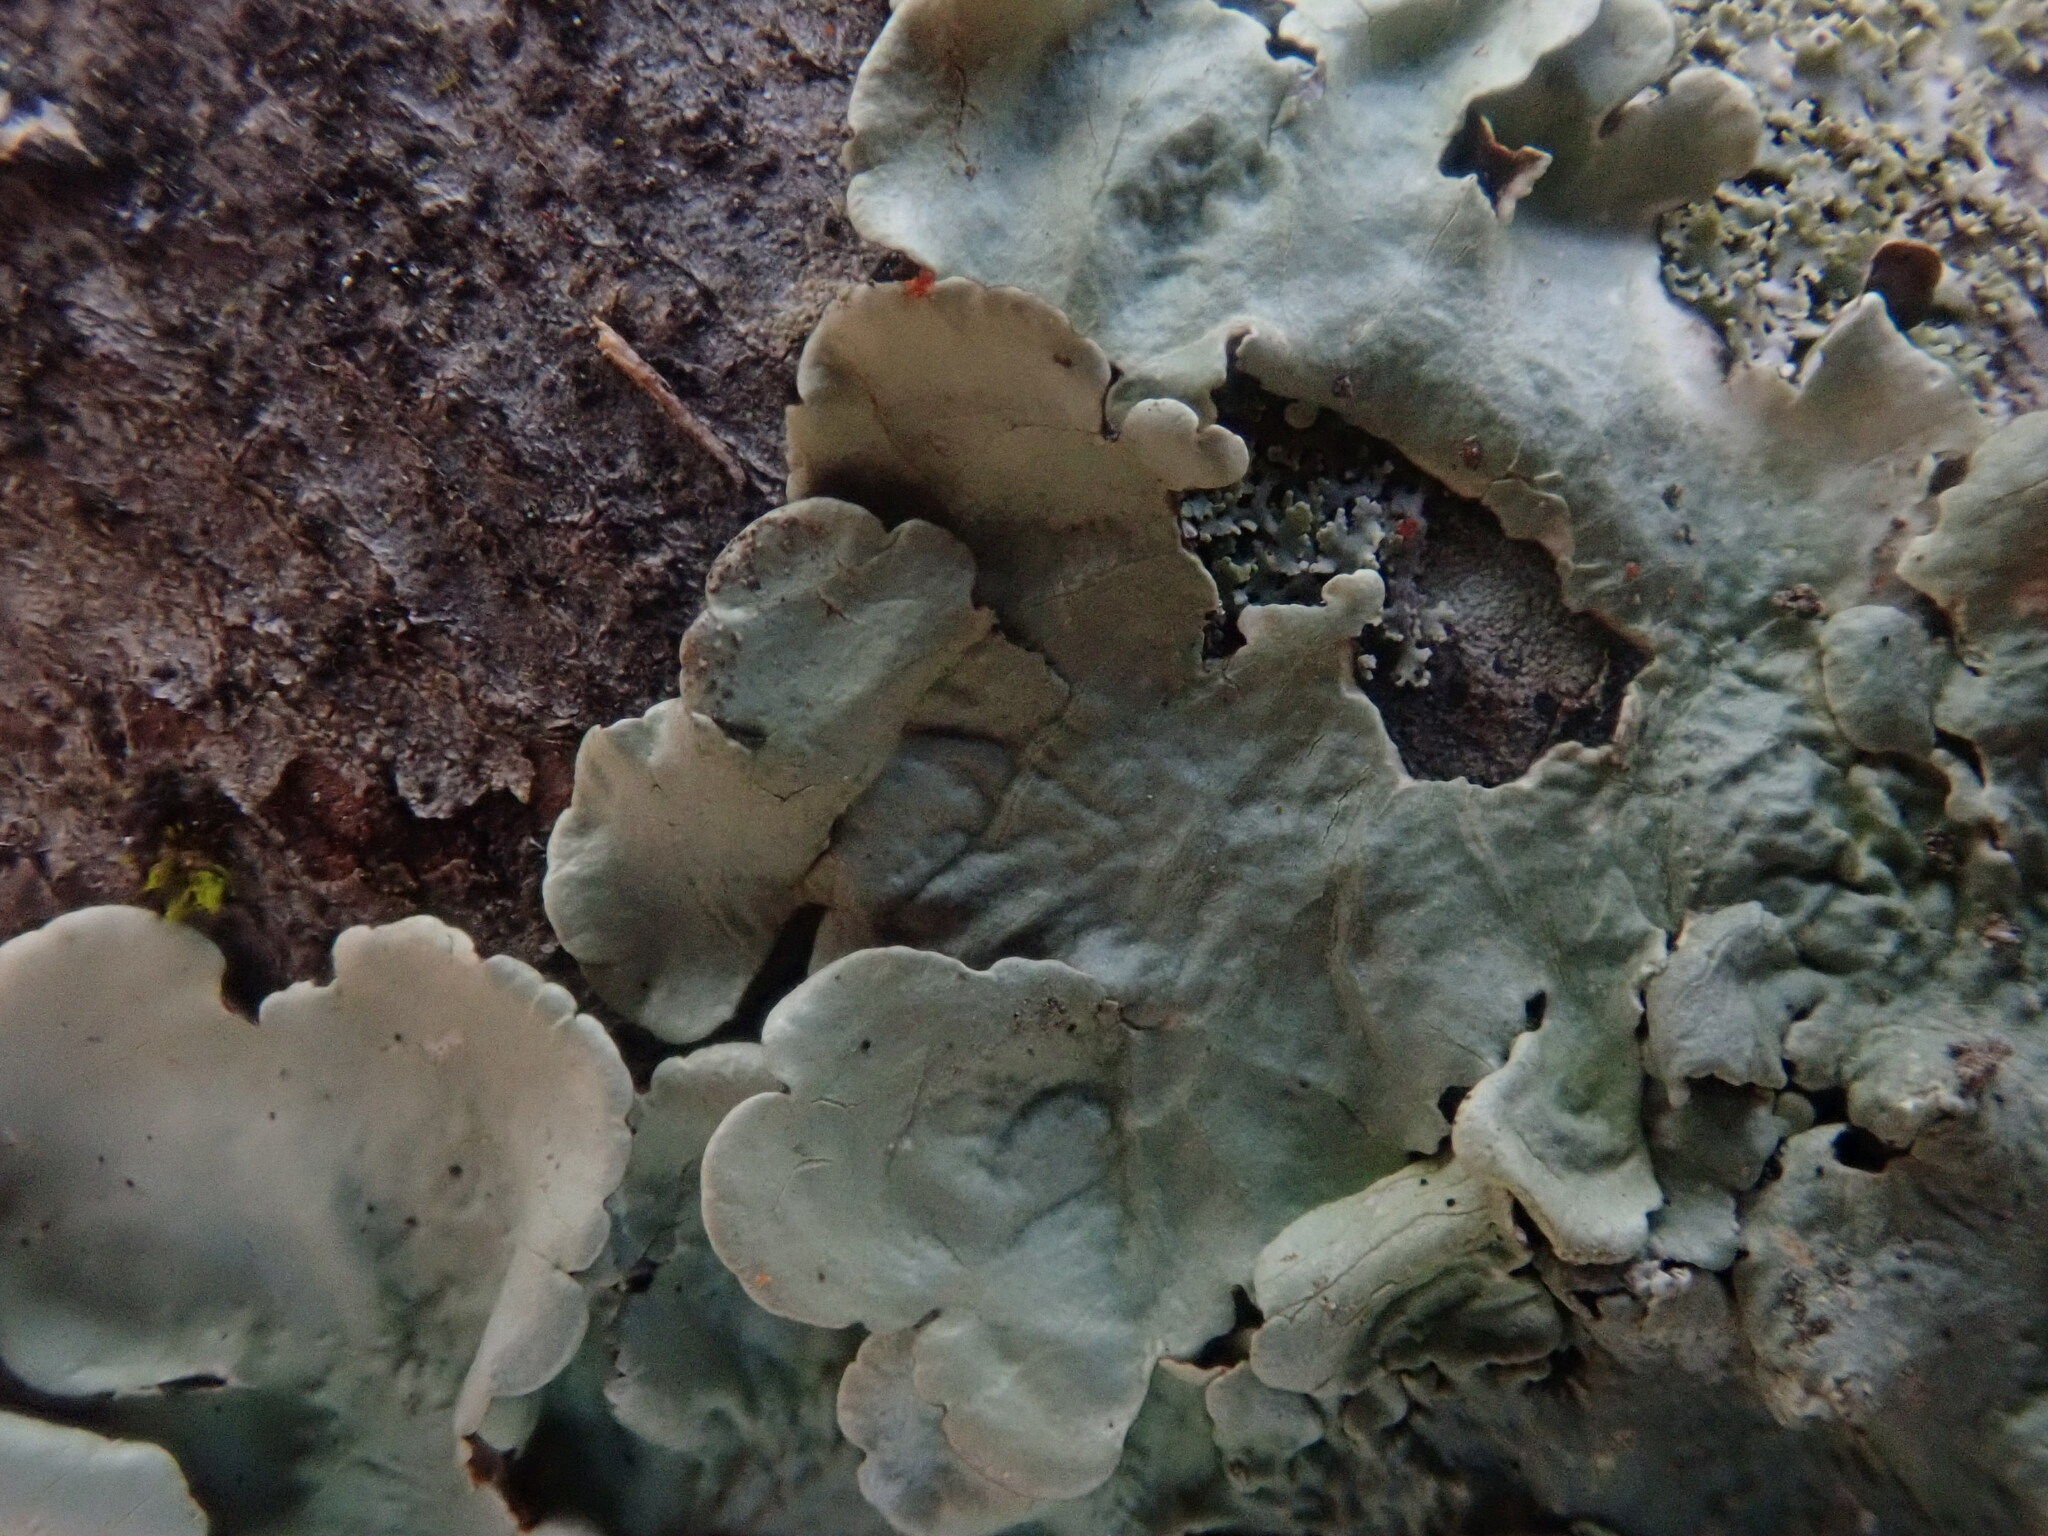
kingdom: Fungi
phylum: Ascomycota
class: Lecanoromycetes
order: Lecanorales
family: Parmeliaceae
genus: Flavoparmelia
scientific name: Flavoparmelia caperata
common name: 40-mile per hour lichen
